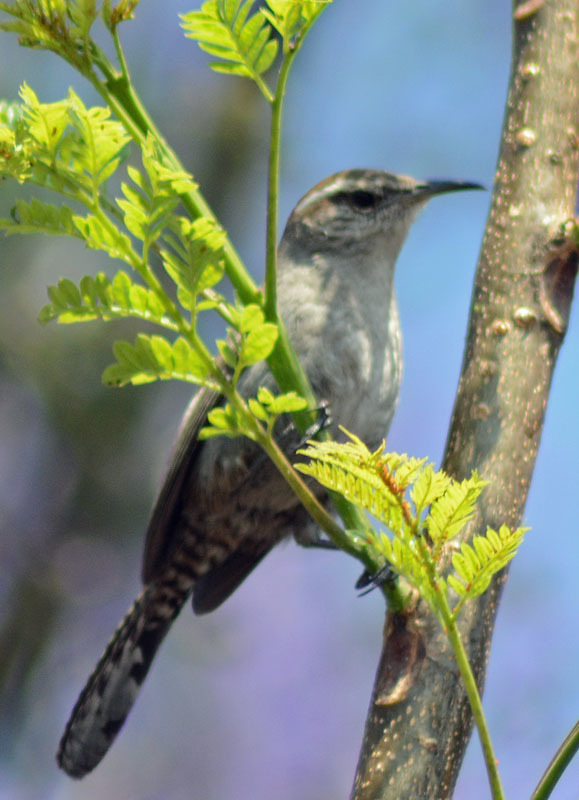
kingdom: Animalia
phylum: Chordata
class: Aves
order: Passeriformes
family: Troglodytidae
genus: Thryomanes
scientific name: Thryomanes bewickii
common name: Bewick's wren
